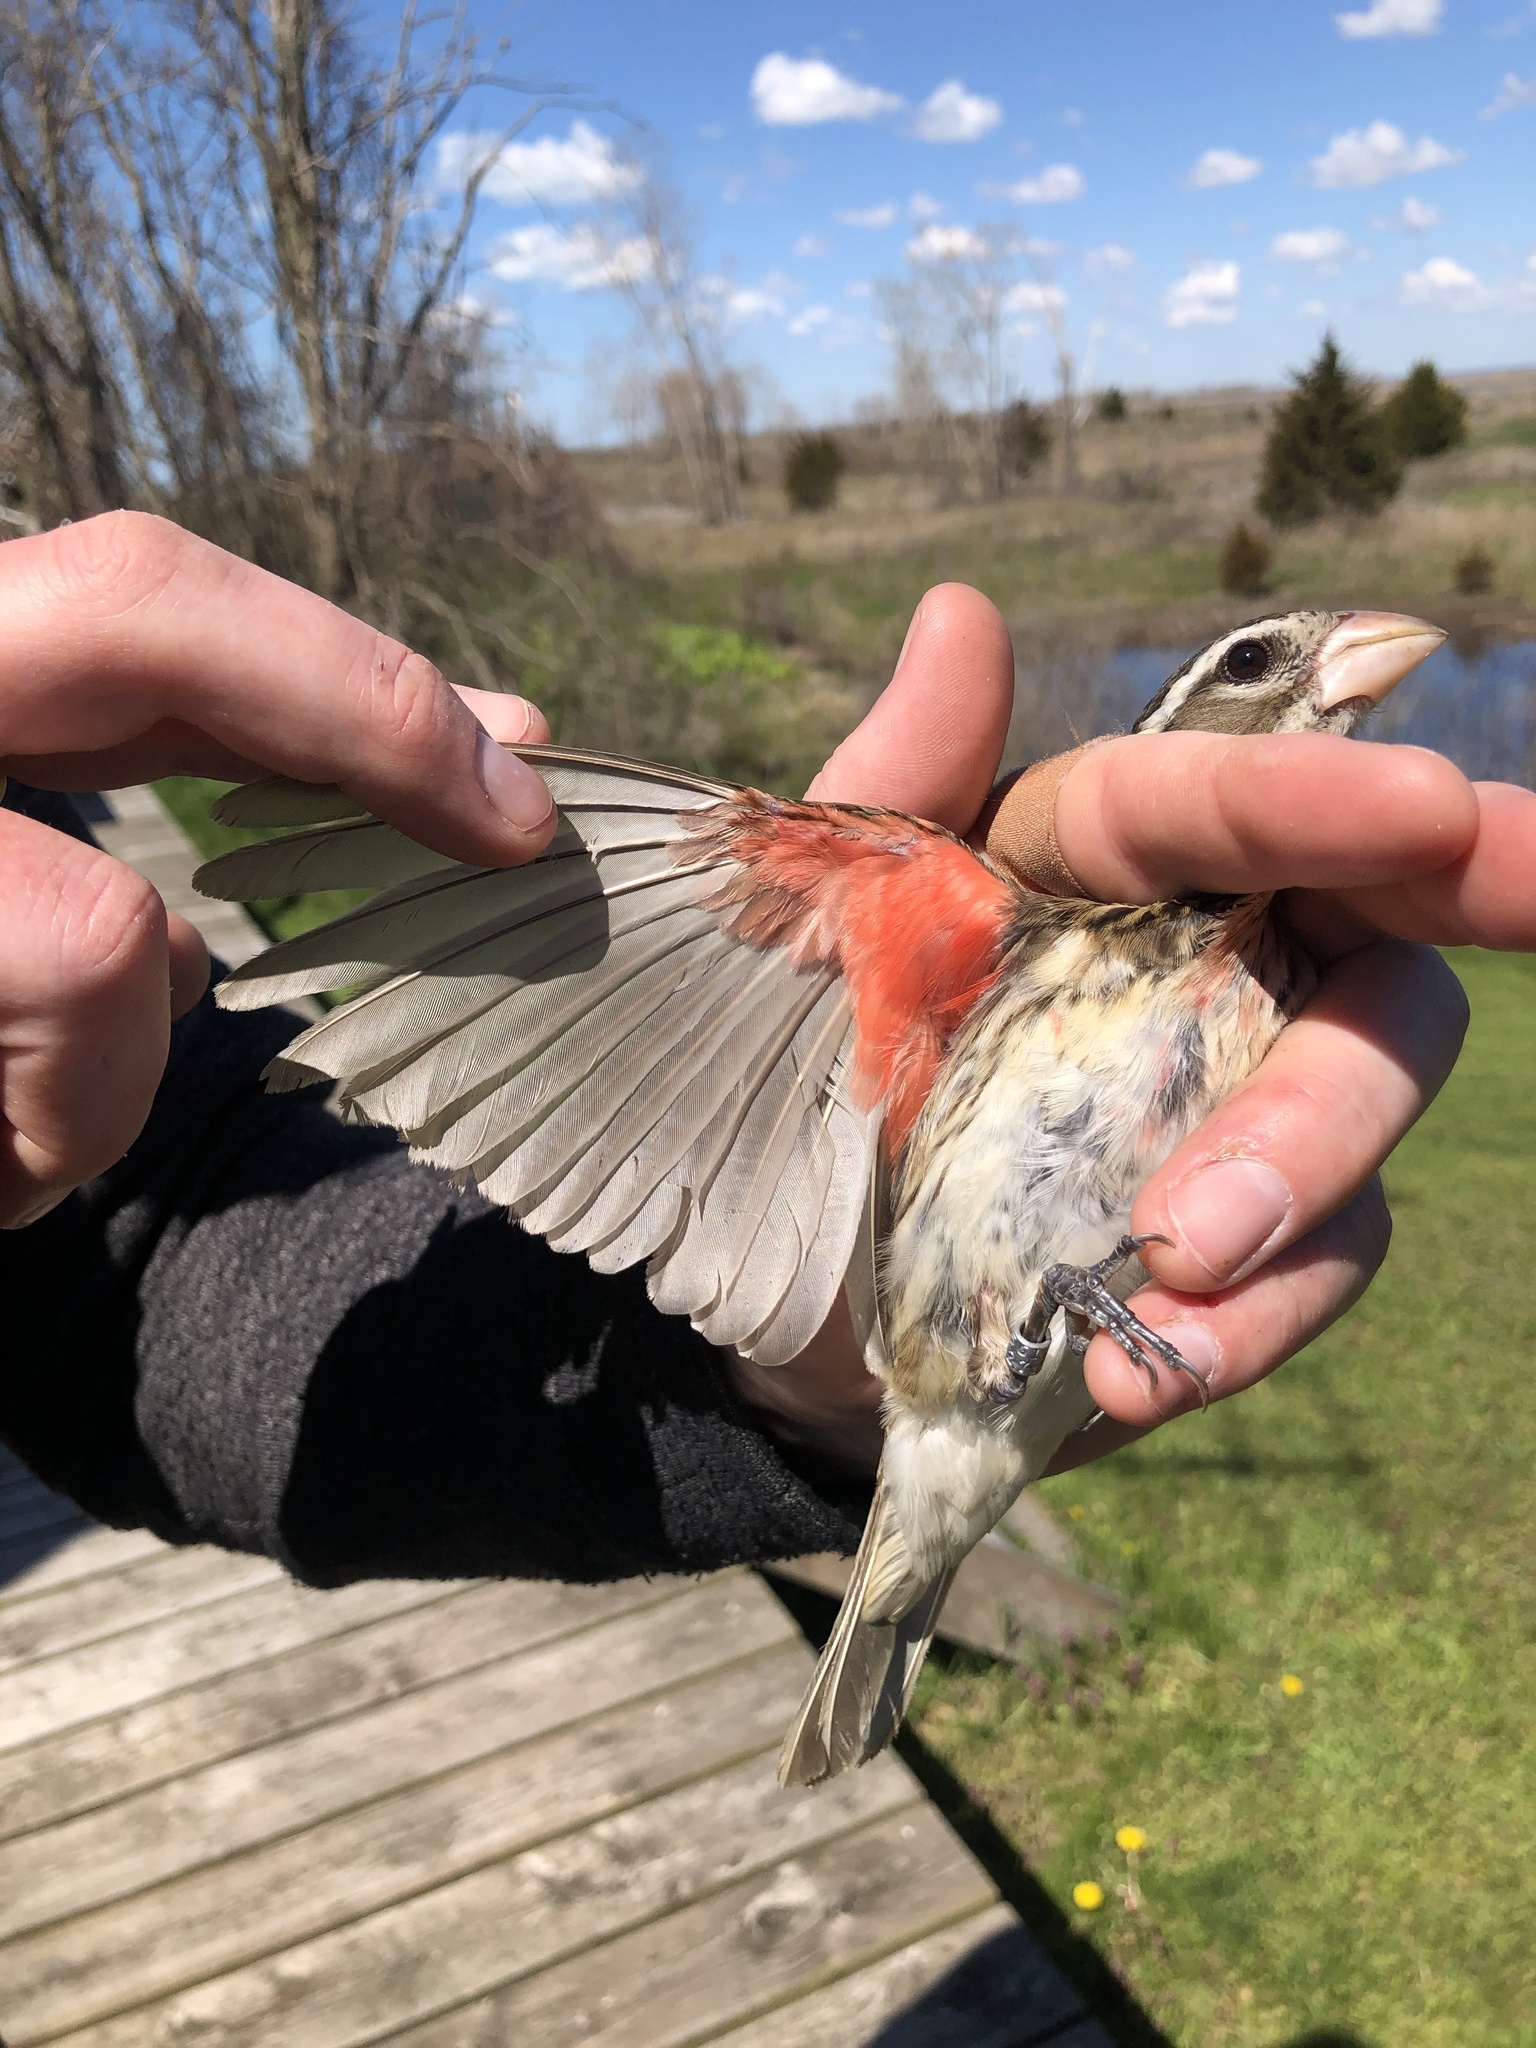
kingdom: Animalia
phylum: Chordata
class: Aves
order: Passeriformes
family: Cardinalidae
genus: Pheucticus
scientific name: Pheucticus ludovicianus
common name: Rose-breasted grosbeak
